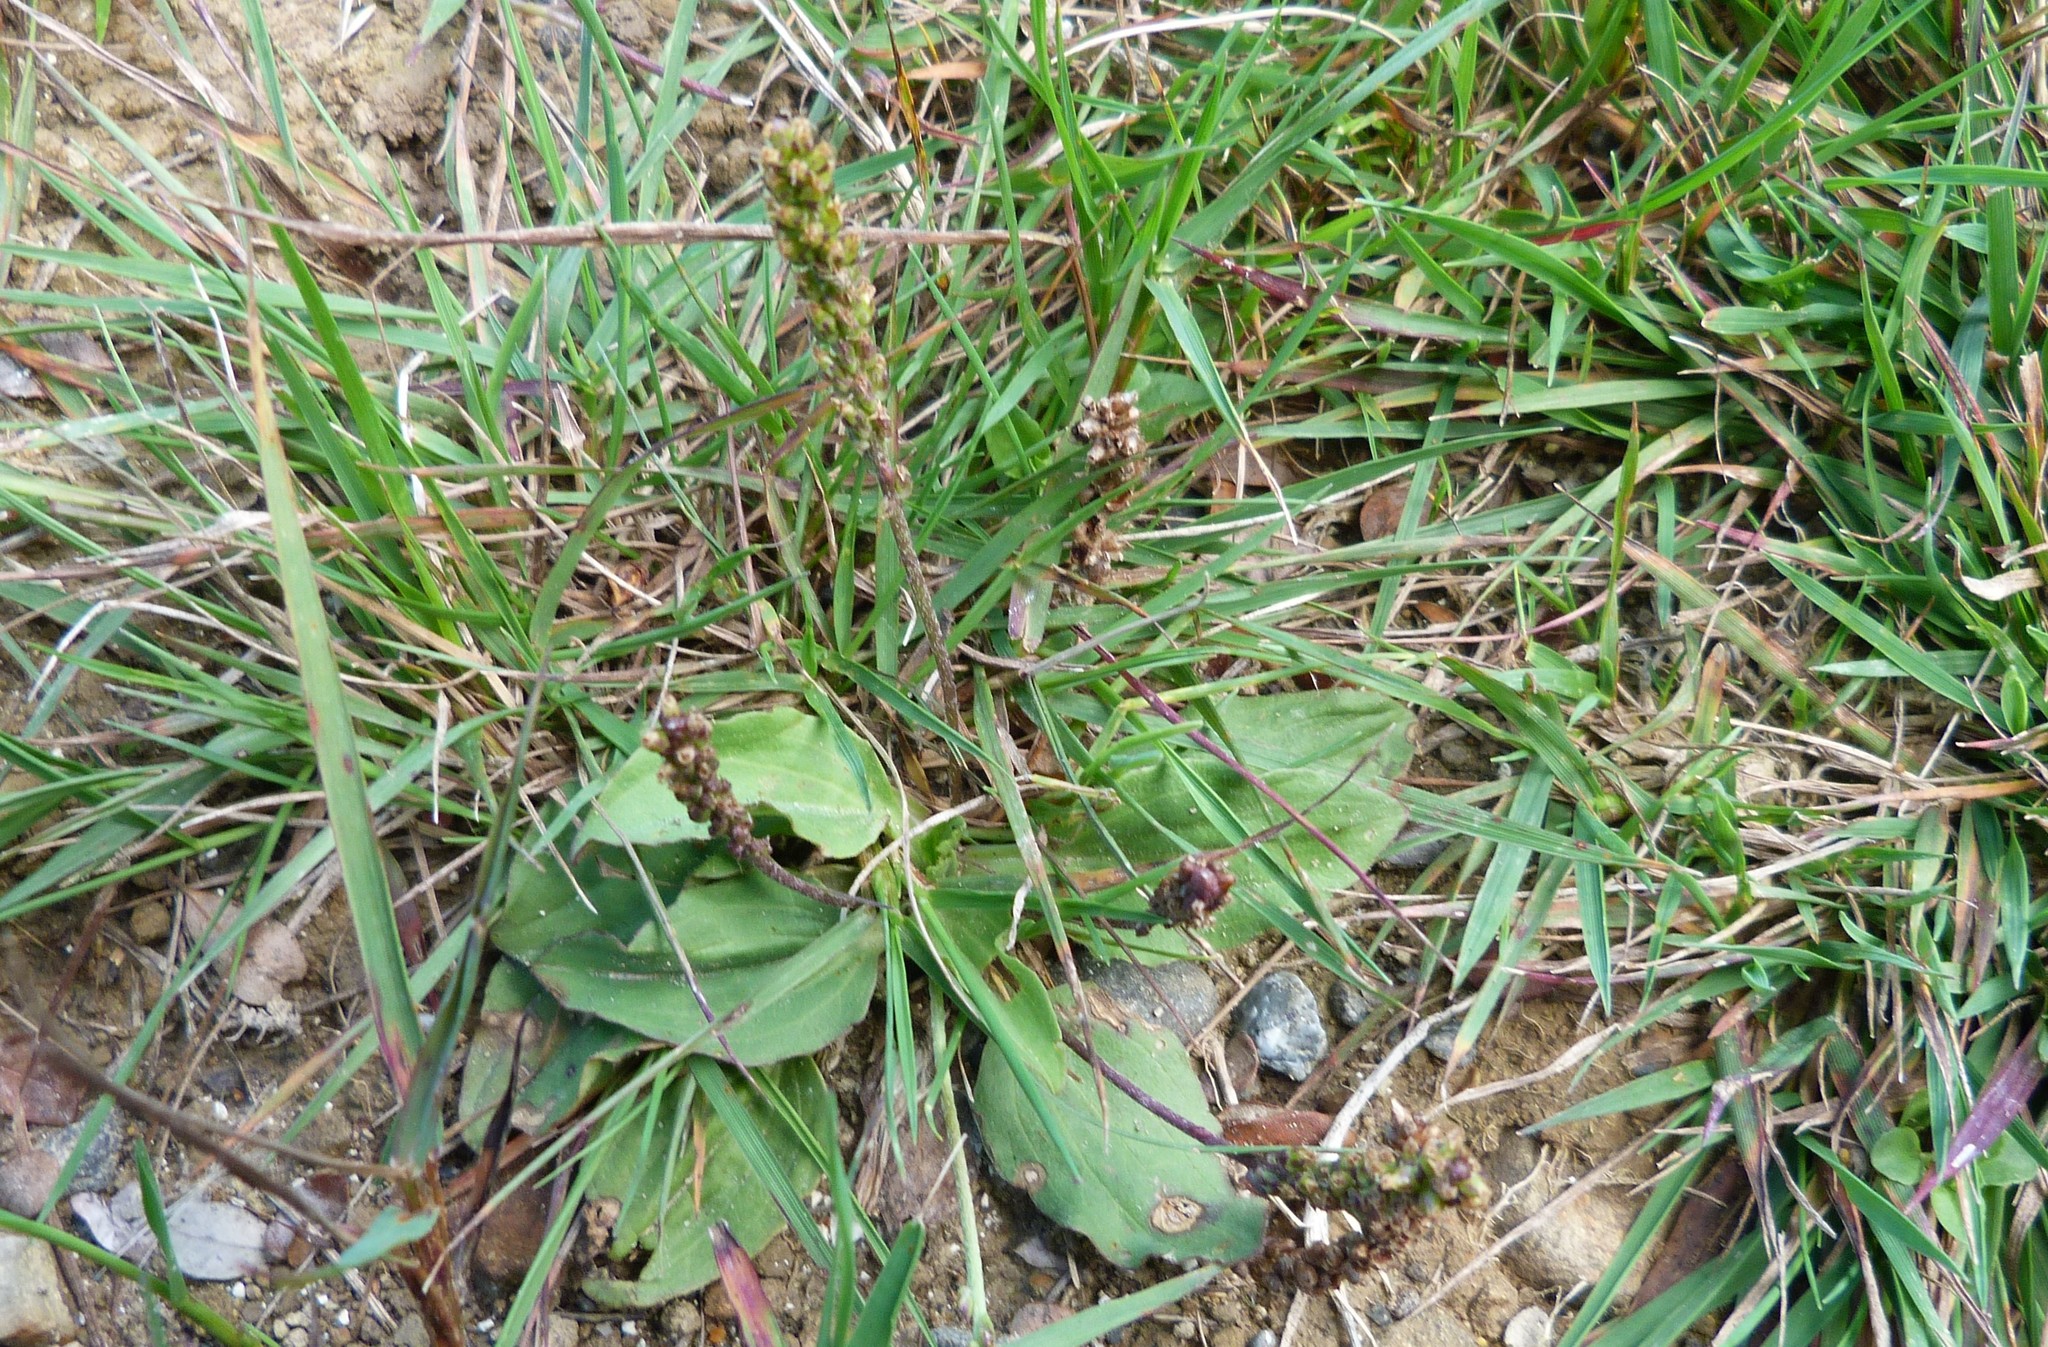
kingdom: Plantae
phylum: Tracheophyta
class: Magnoliopsida
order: Lamiales
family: Plantaginaceae
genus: Plantago
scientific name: Plantago major
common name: Common plantain
